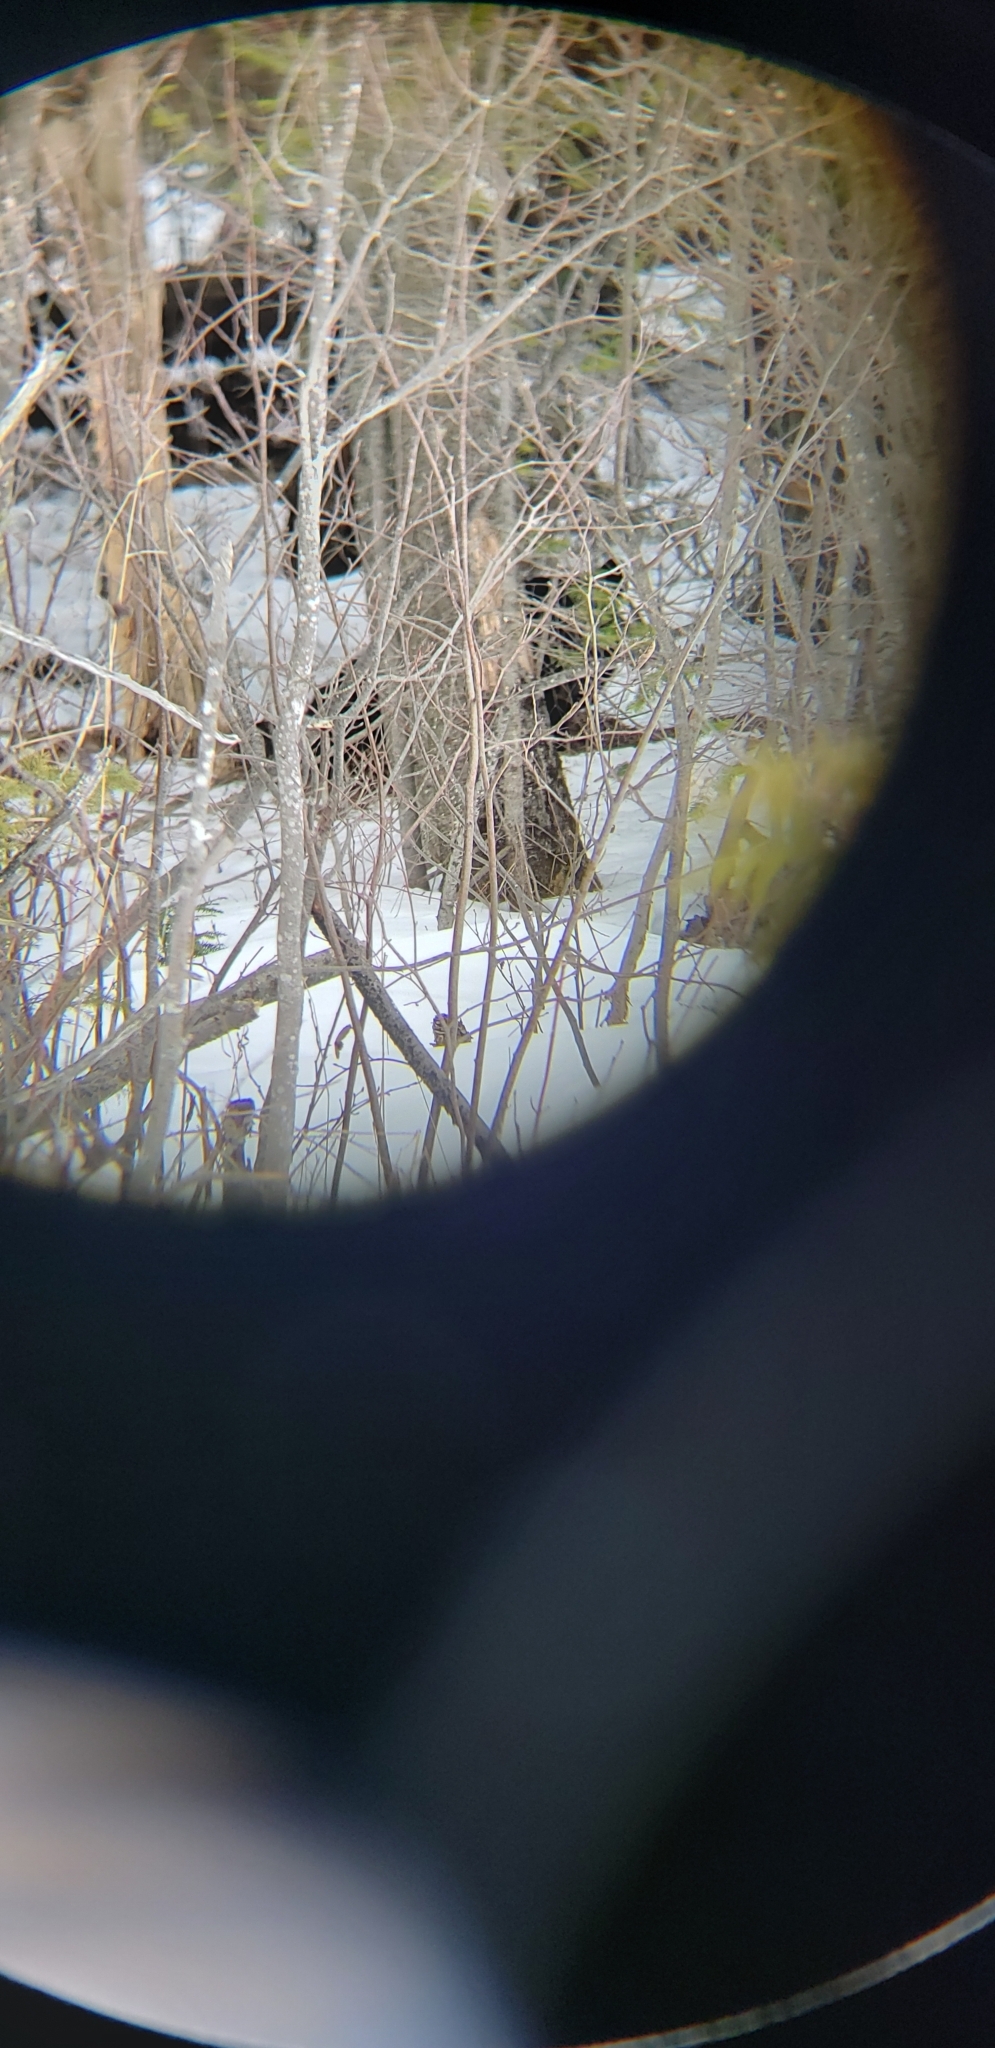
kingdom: Animalia
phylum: Chordata
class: Mammalia
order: Carnivora
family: Ursidae
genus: Ursus
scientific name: Ursus americanus
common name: American black bear
